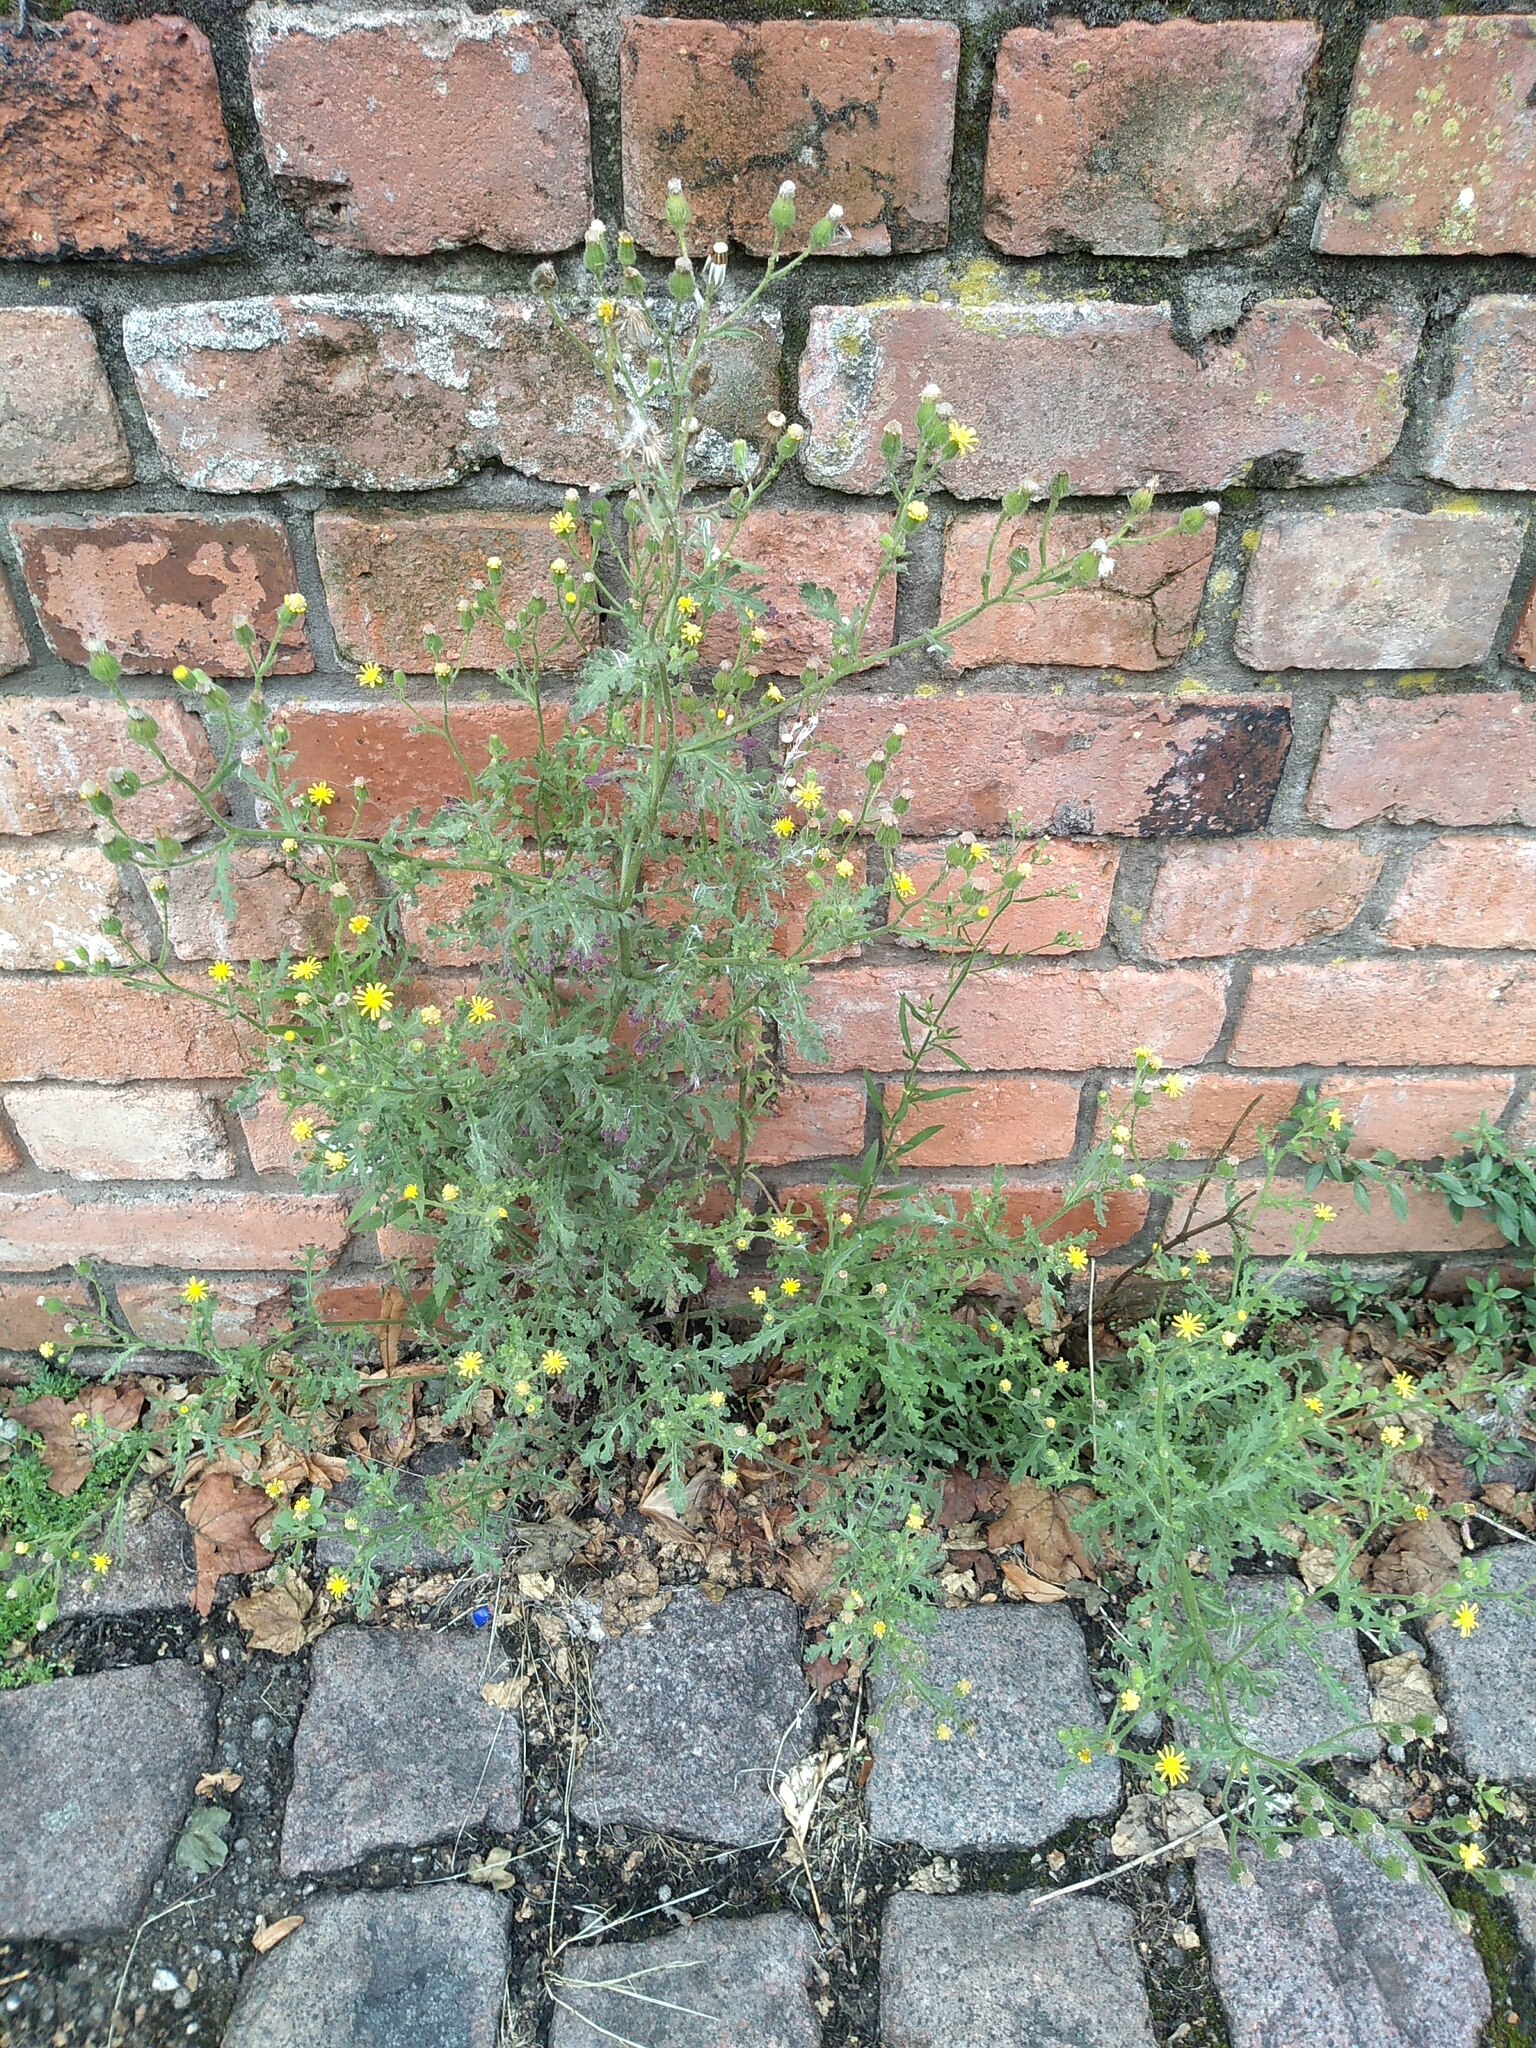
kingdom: Plantae
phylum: Tracheophyta
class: Magnoliopsida
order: Asterales
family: Asteraceae
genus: Senecio
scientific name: Senecio viscosus
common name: Sticky groundsel
